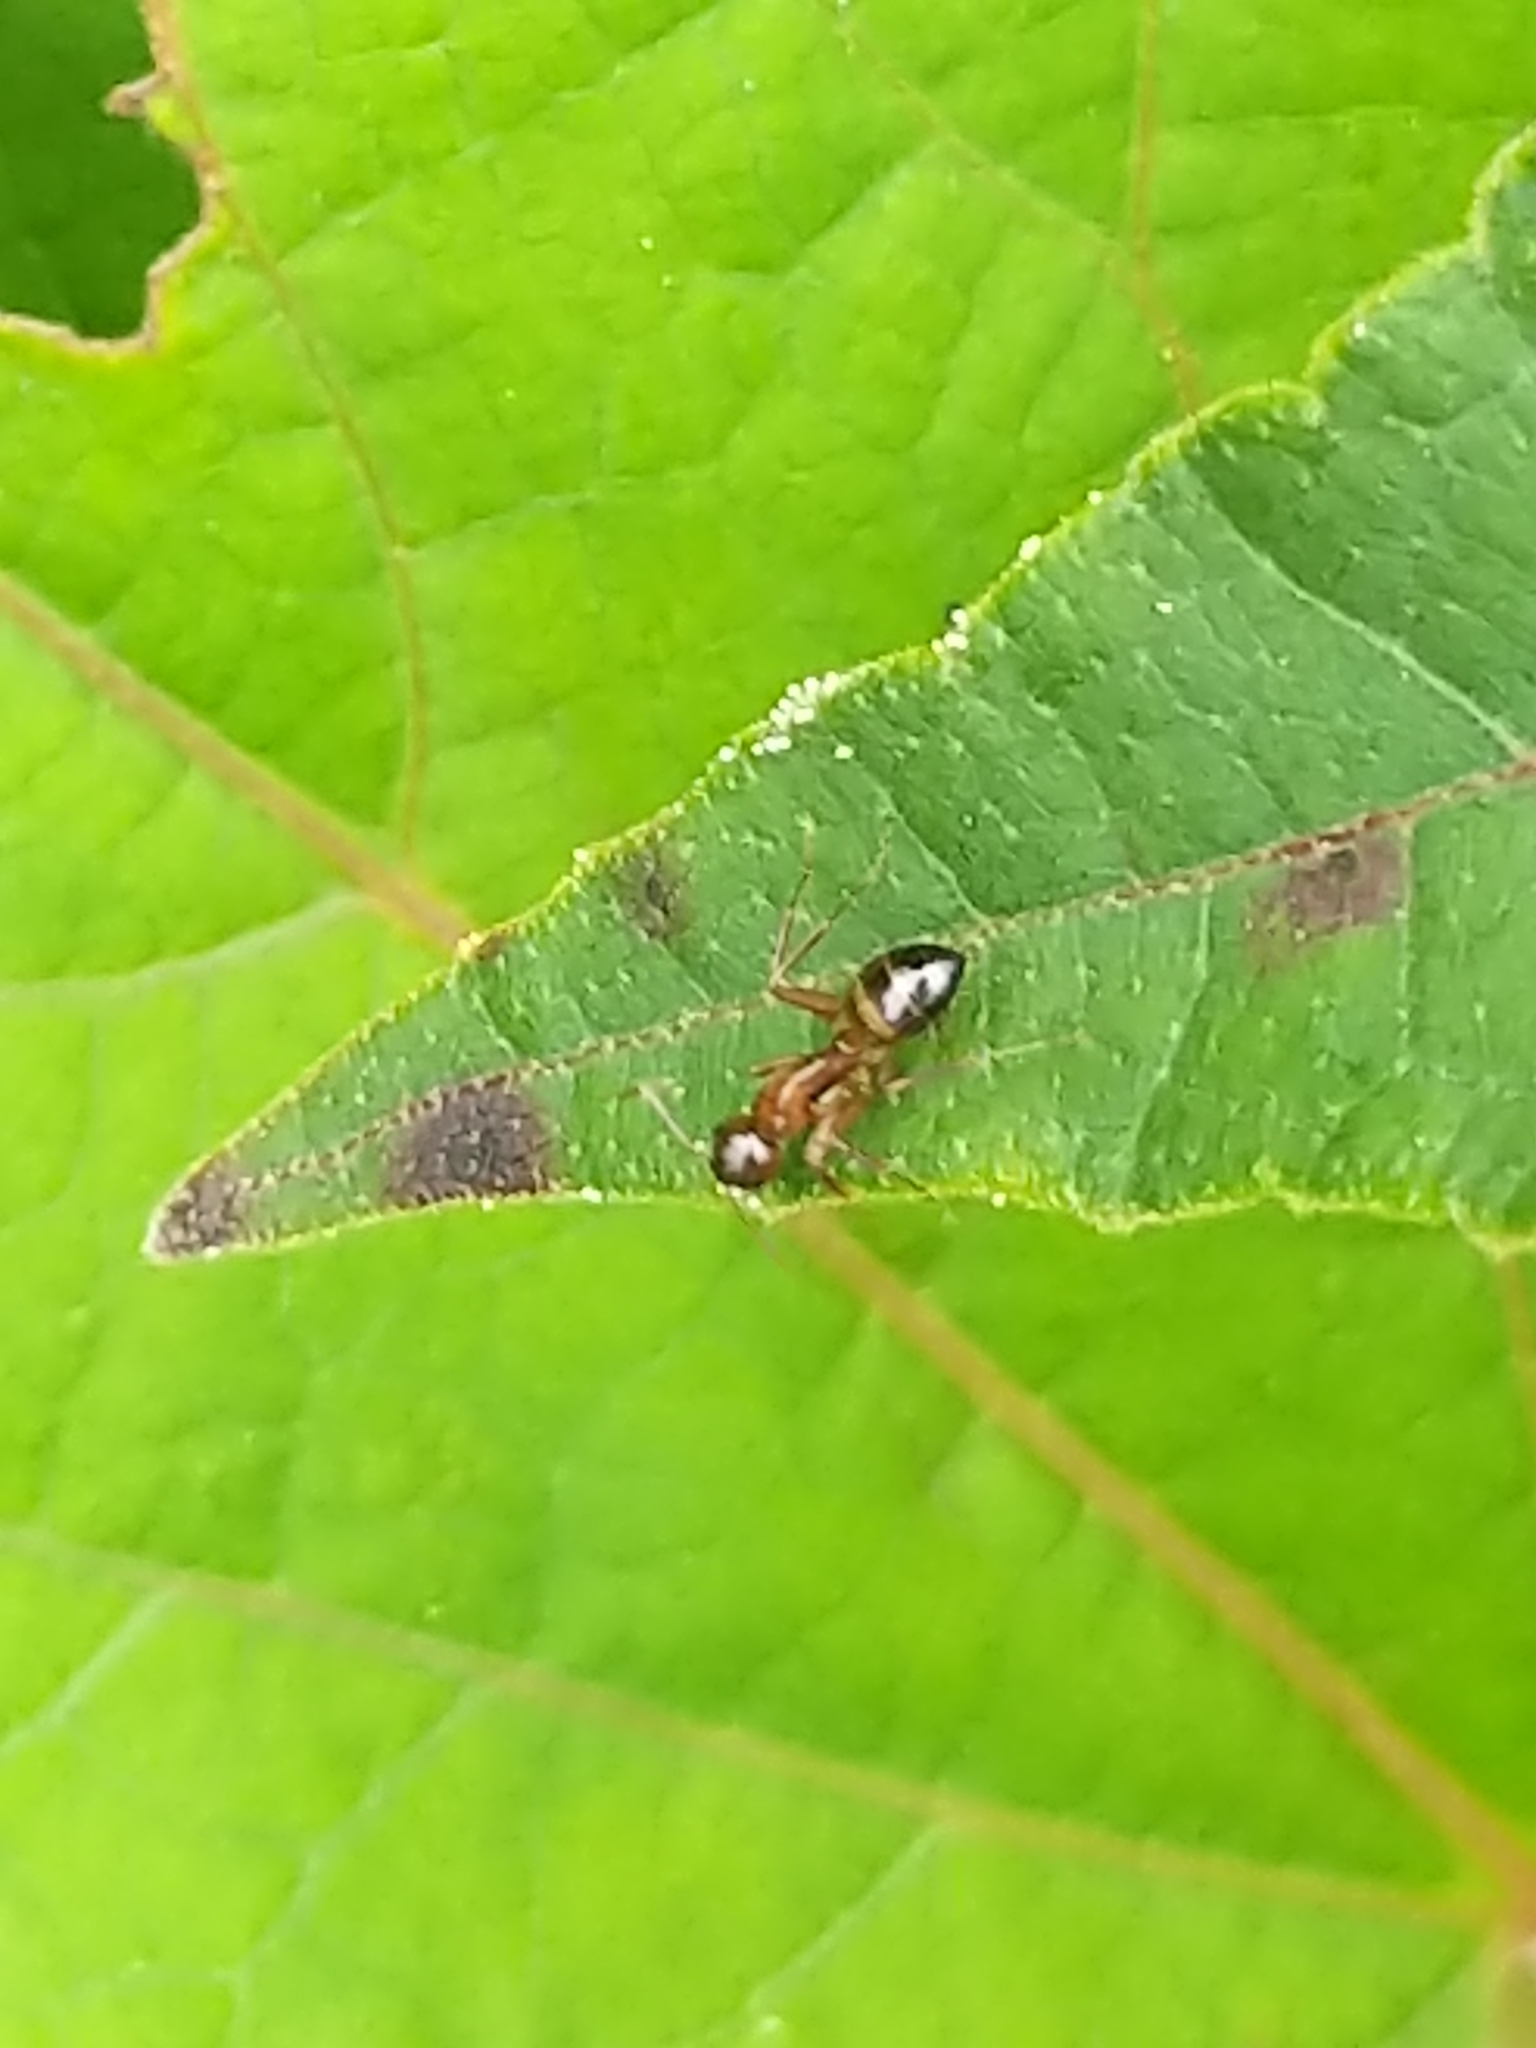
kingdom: Animalia
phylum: Arthropoda
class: Insecta
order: Hymenoptera
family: Formicidae
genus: Camponotus
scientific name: Camponotus subbarbatus
